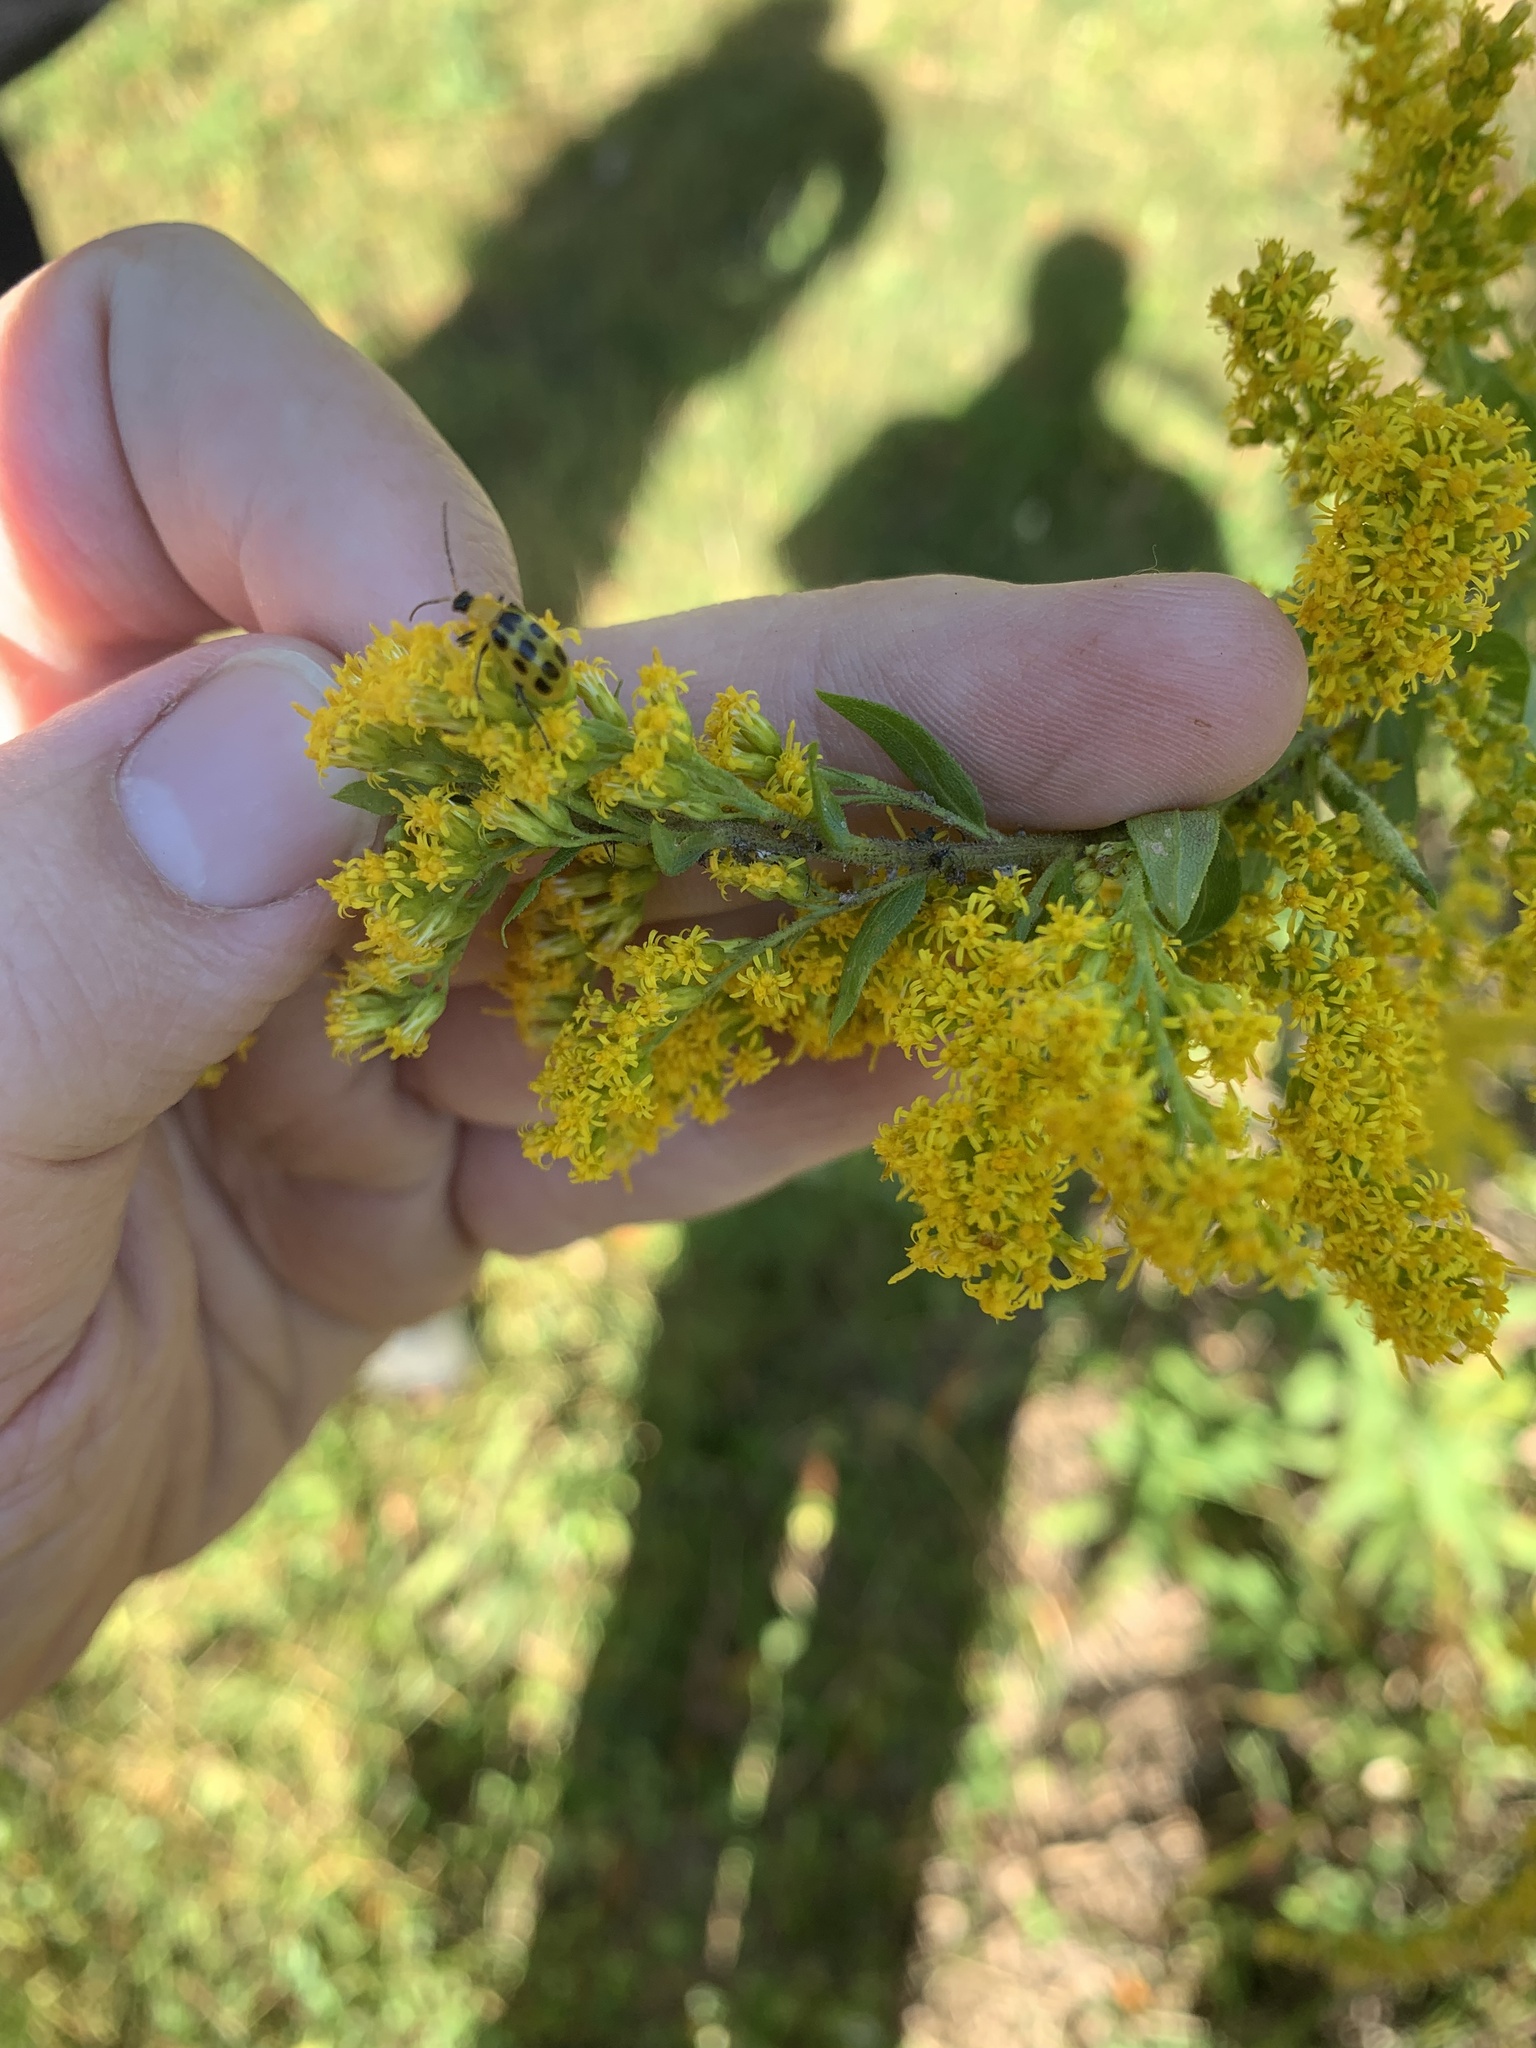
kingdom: Animalia
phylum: Arthropoda
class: Insecta
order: Coleoptera
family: Chrysomelidae
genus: Diabrotica
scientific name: Diabrotica undecimpunctata
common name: Spotted cucumber beetle
